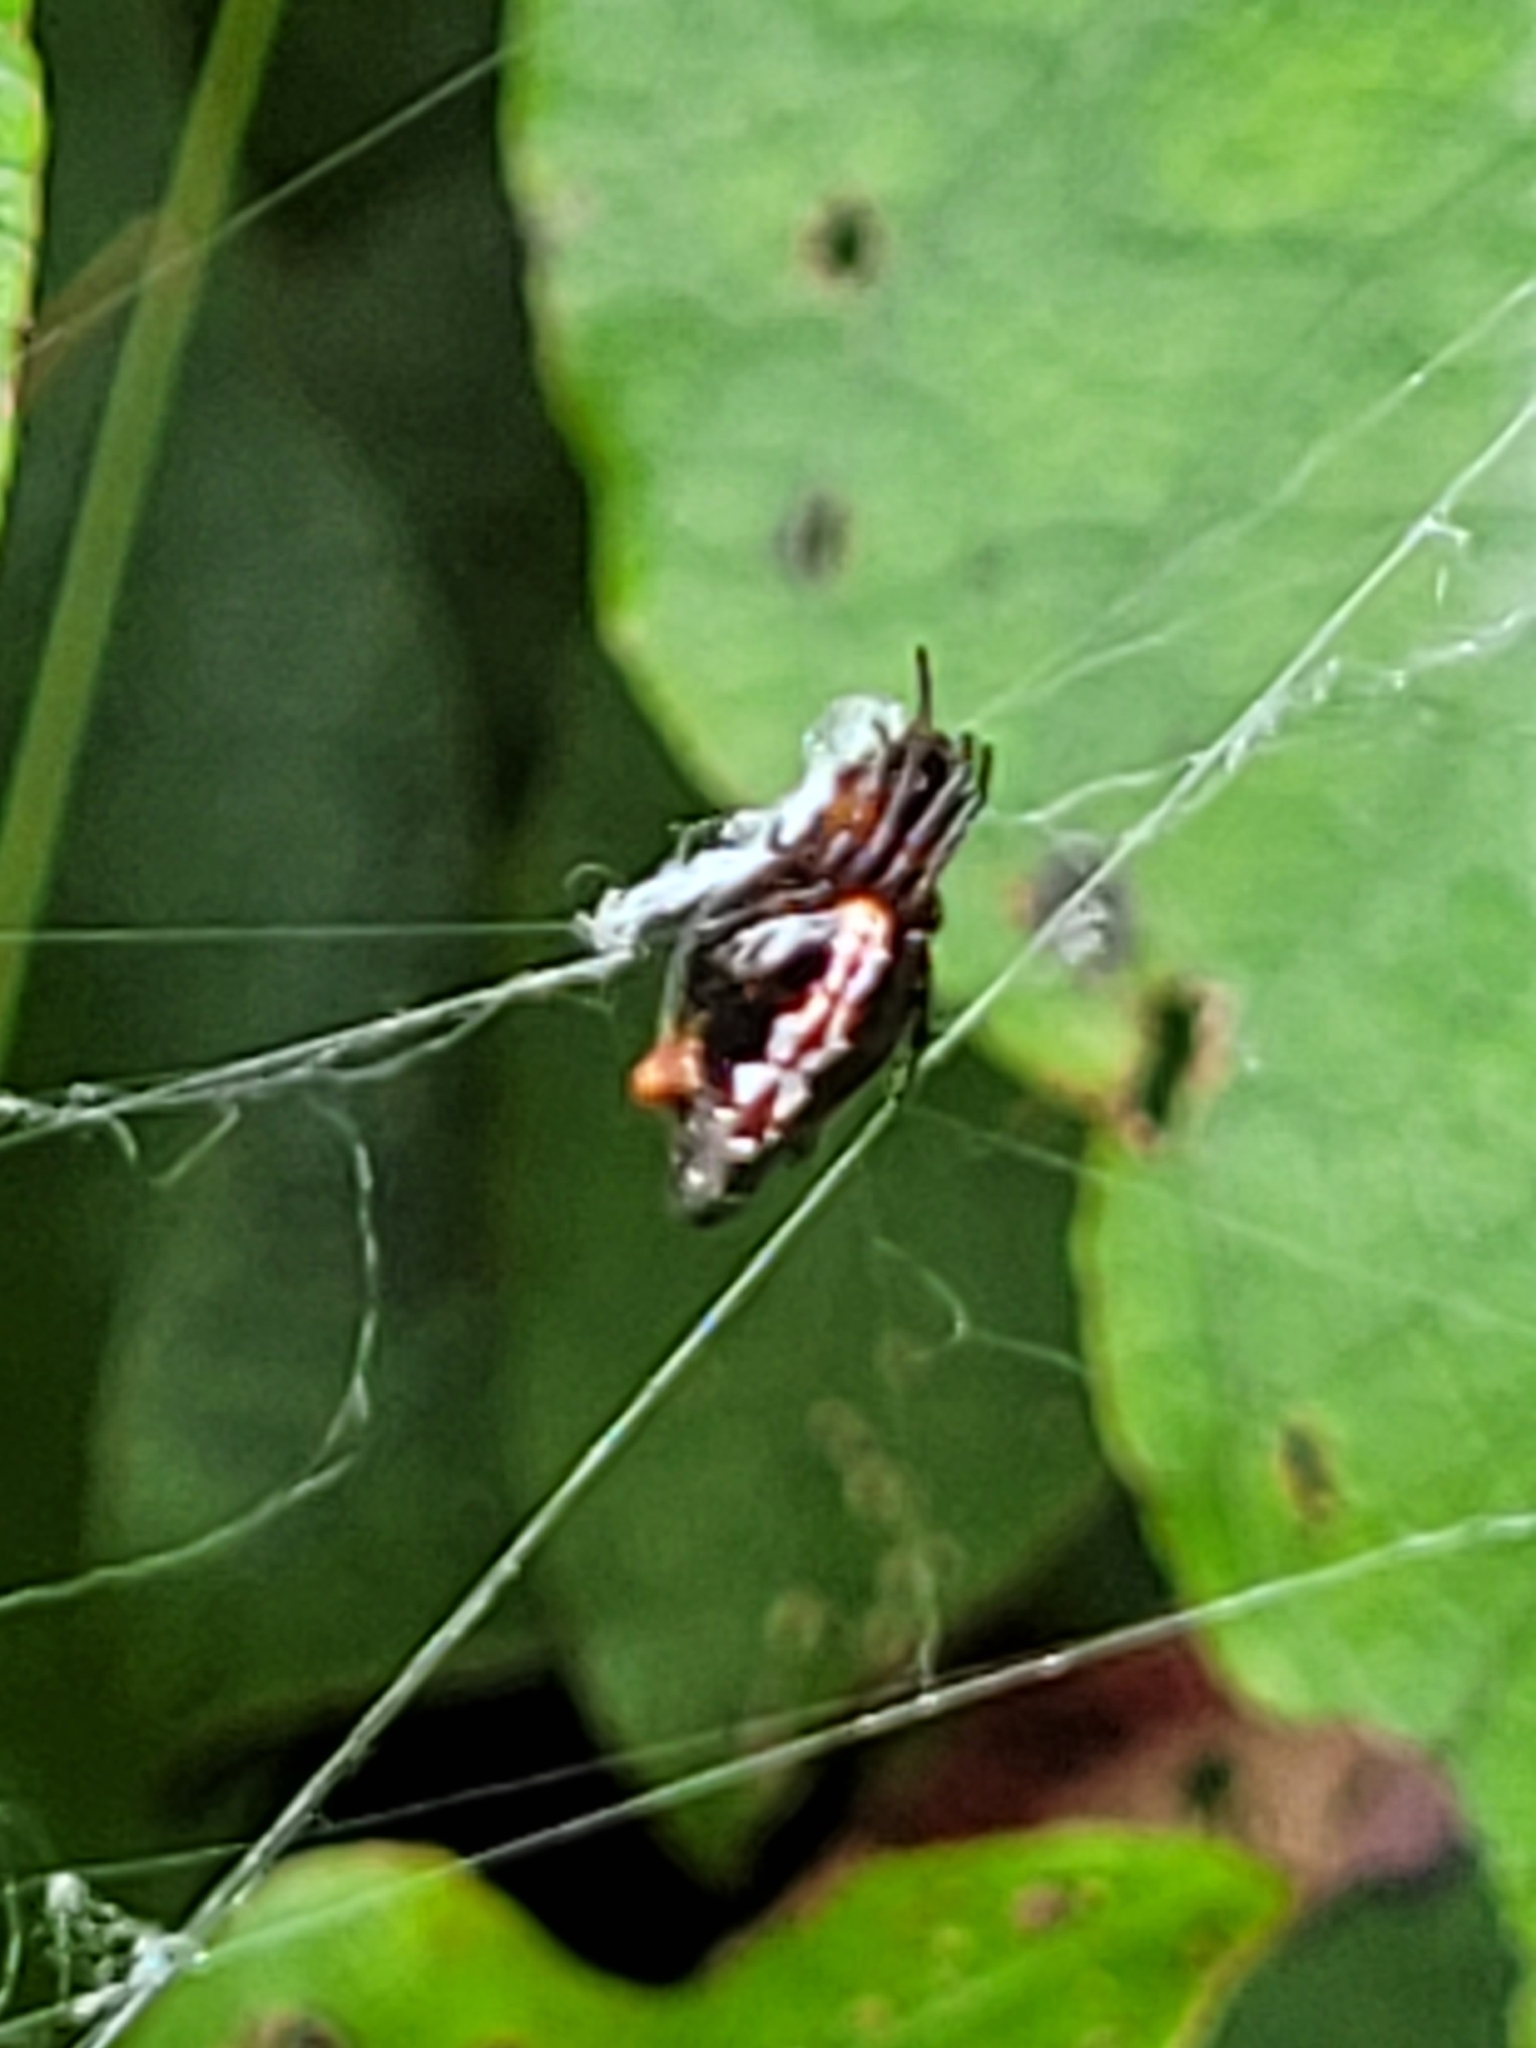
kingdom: Animalia
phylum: Arthropoda
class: Arachnida
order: Araneae
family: Araneidae
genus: Cyclosa
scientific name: Cyclosa trilobata
